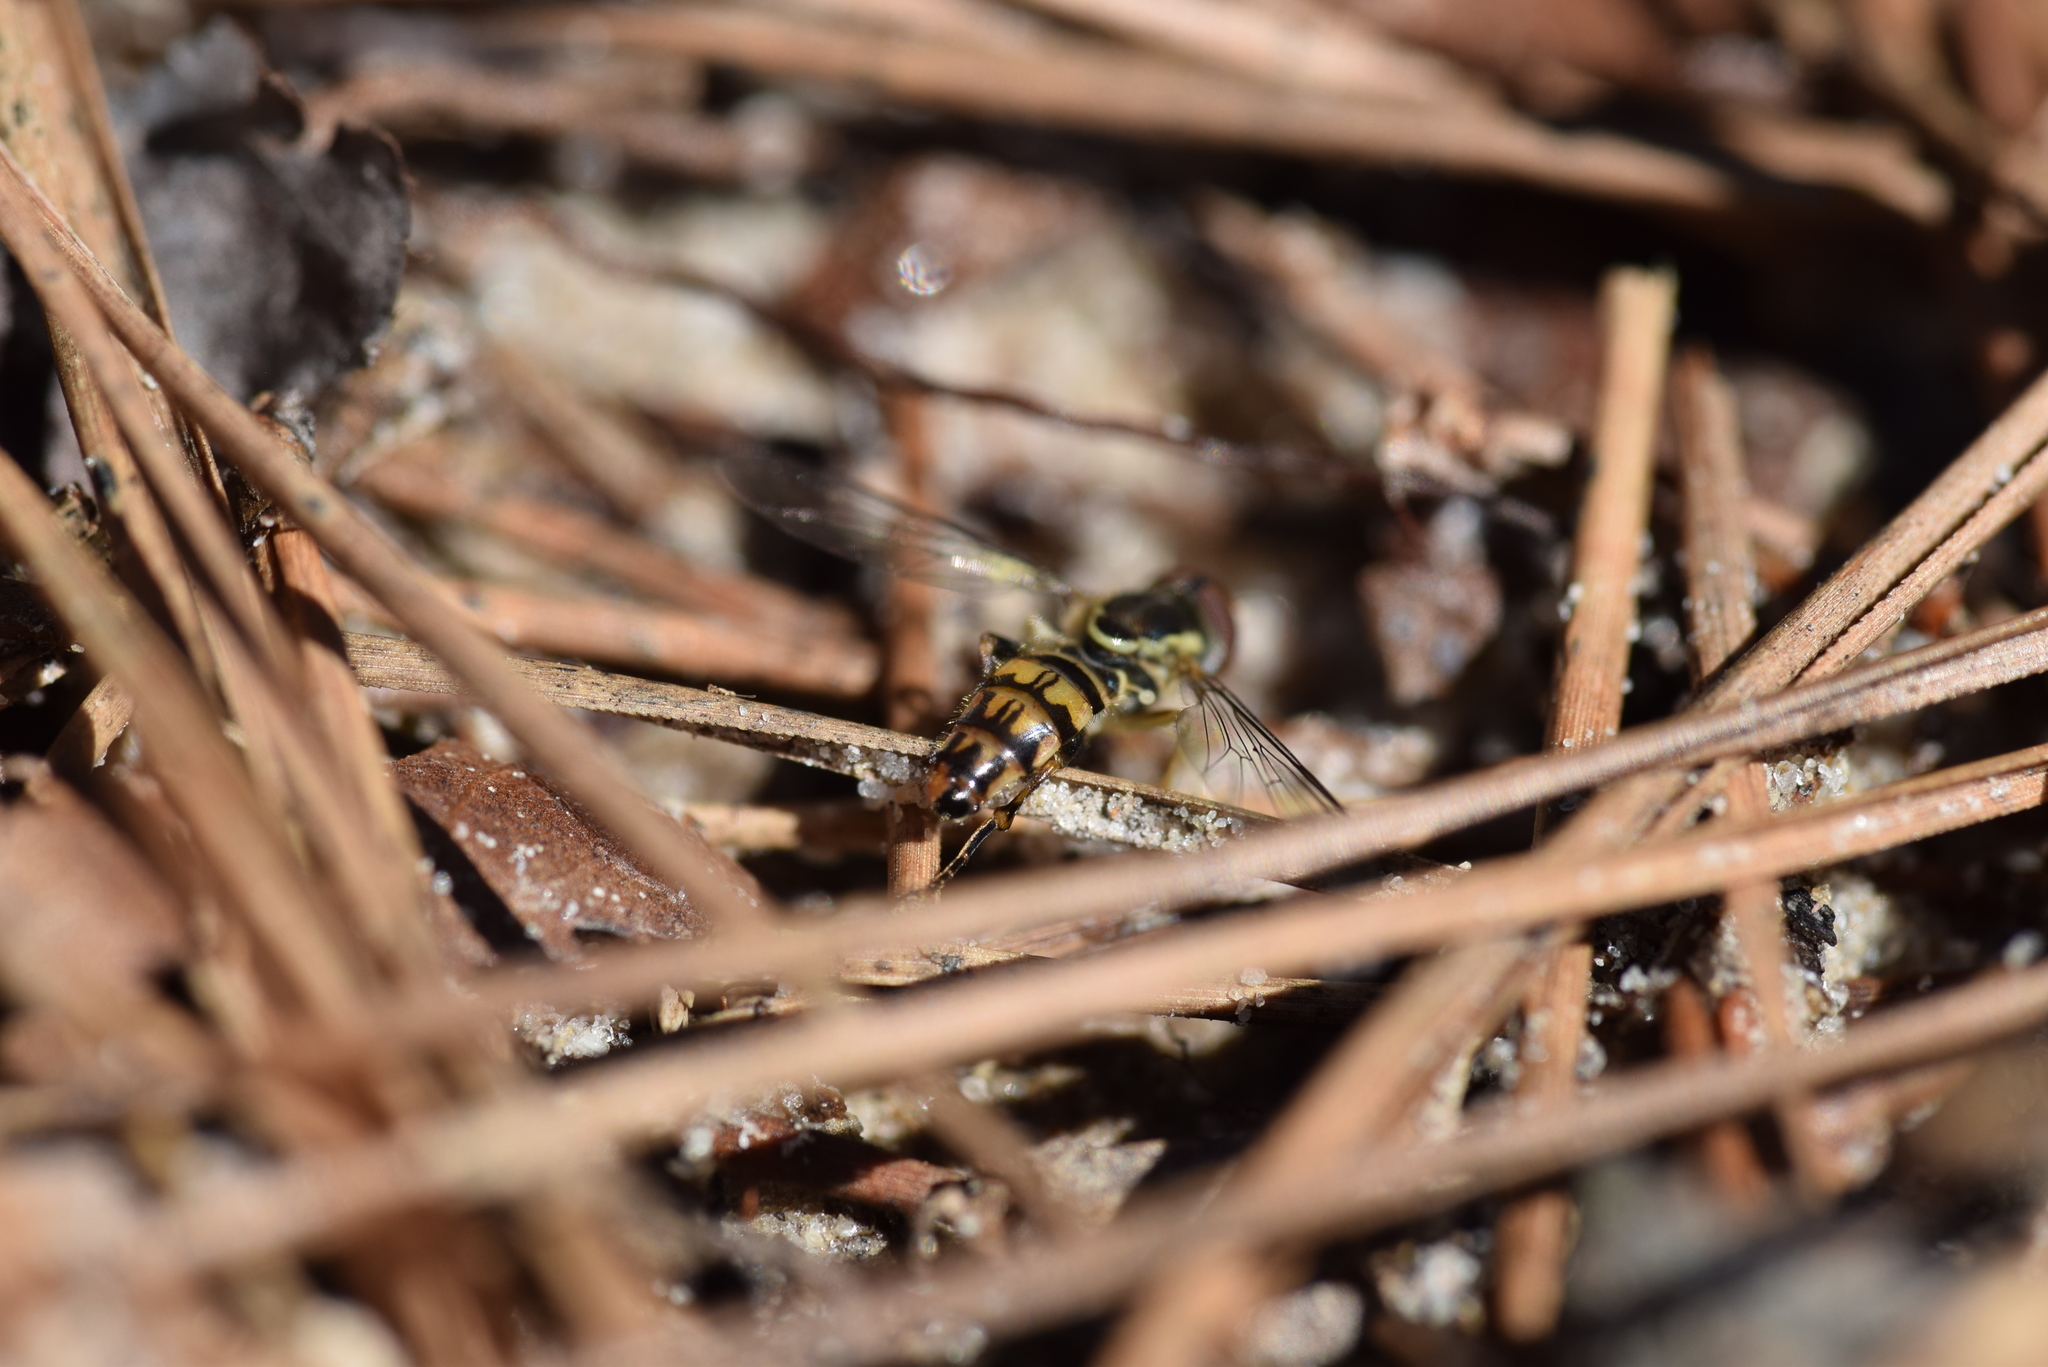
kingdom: Animalia
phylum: Arthropoda
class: Insecta
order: Diptera
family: Syrphidae
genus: Toxomerus
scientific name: Toxomerus geminatus
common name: Eastern calligrapher
